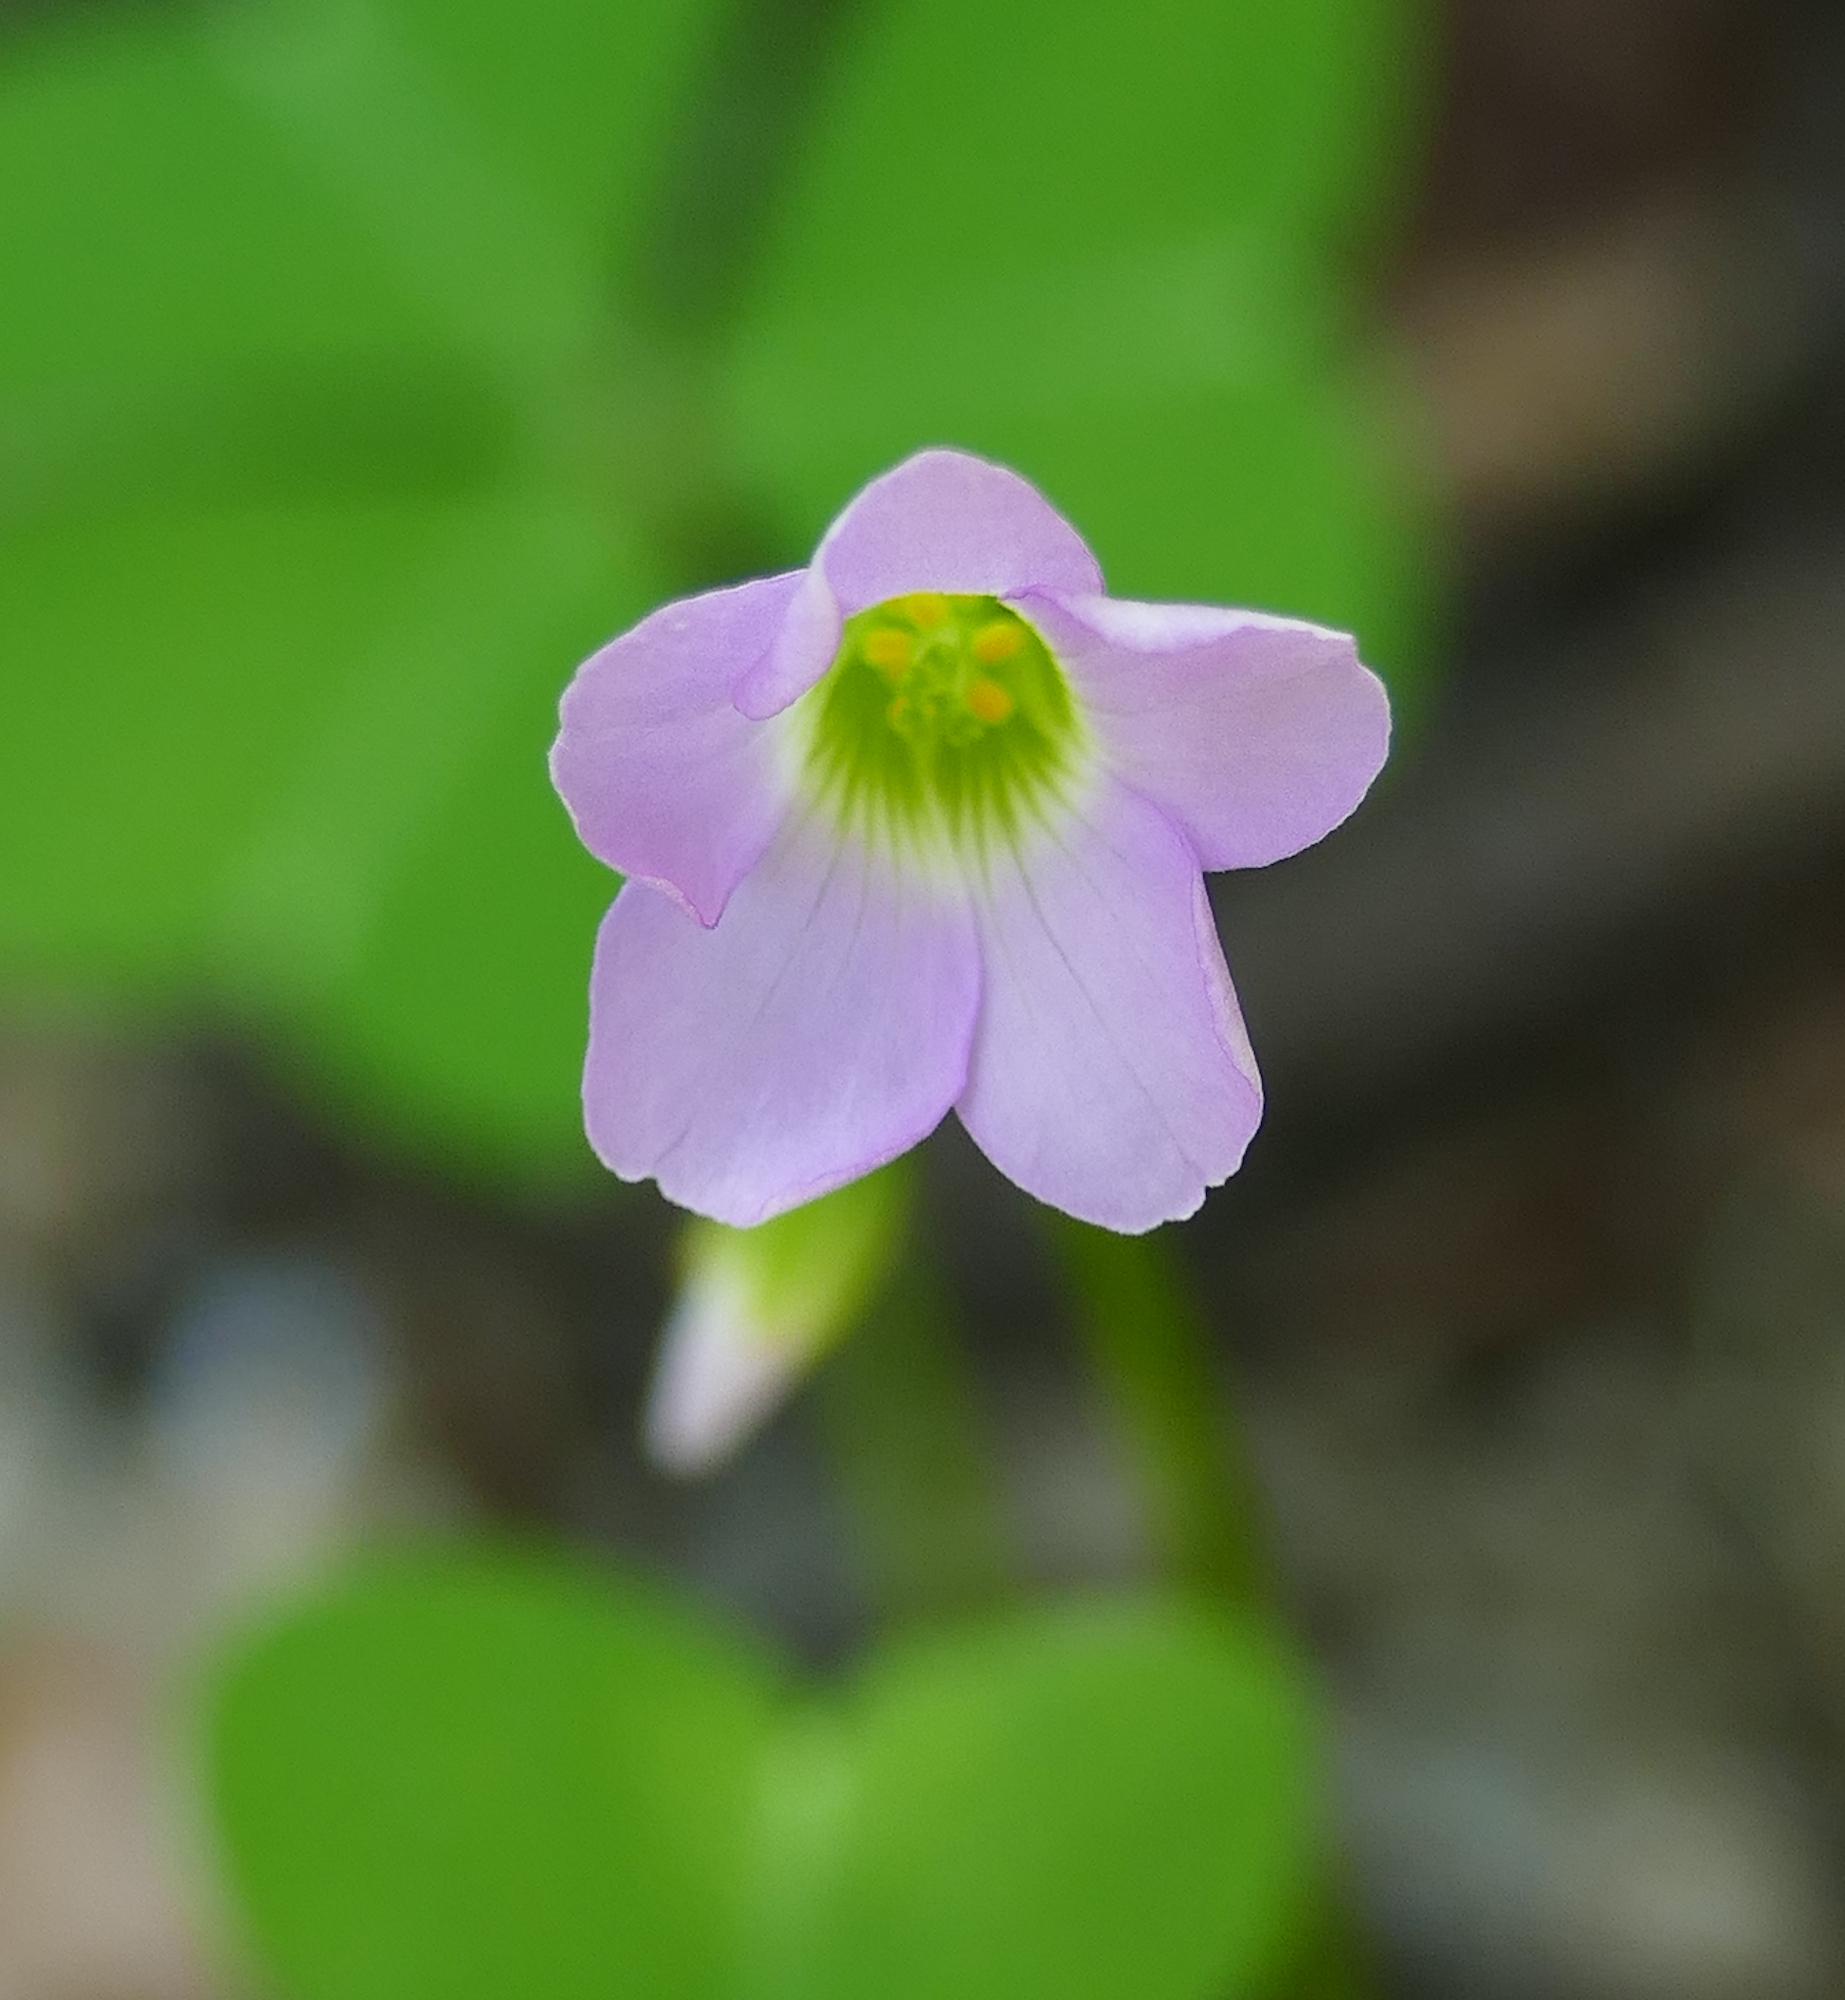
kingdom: Plantae
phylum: Tracheophyta
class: Magnoliopsida
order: Oxalidales
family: Oxalidaceae
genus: Oxalis
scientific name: Oxalis metcalfei
